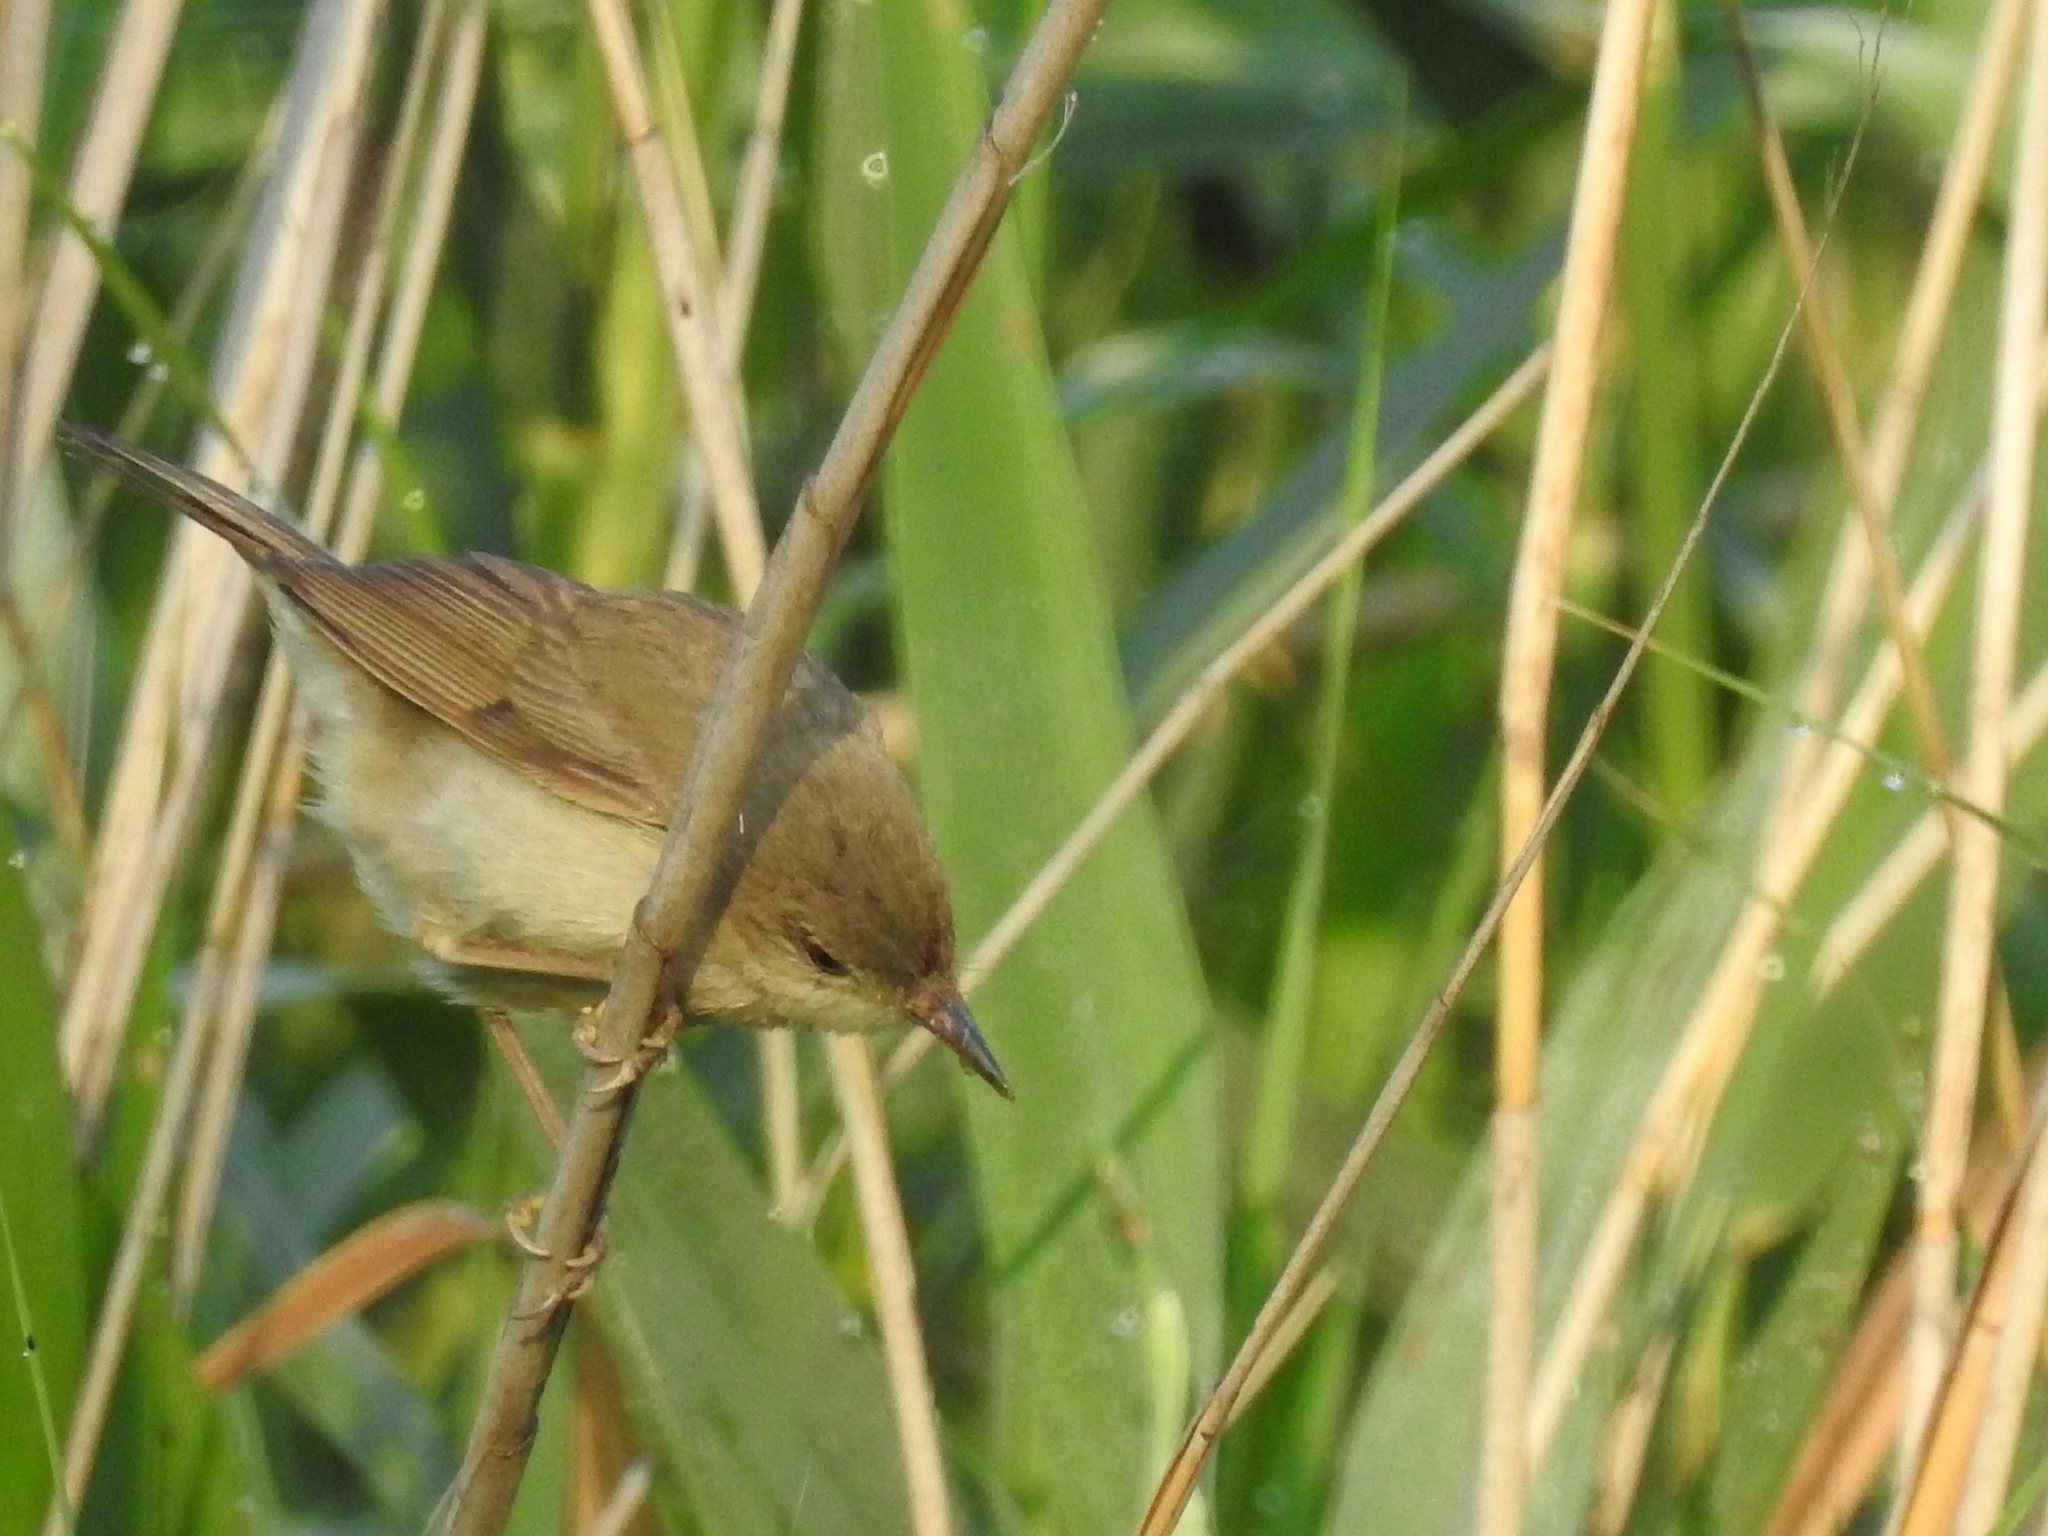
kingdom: Animalia
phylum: Chordata
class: Aves
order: Passeriformes
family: Acrocephalidae
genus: Acrocephalus
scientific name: Acrocephalus dumetorum
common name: Blyth's reed warbler
